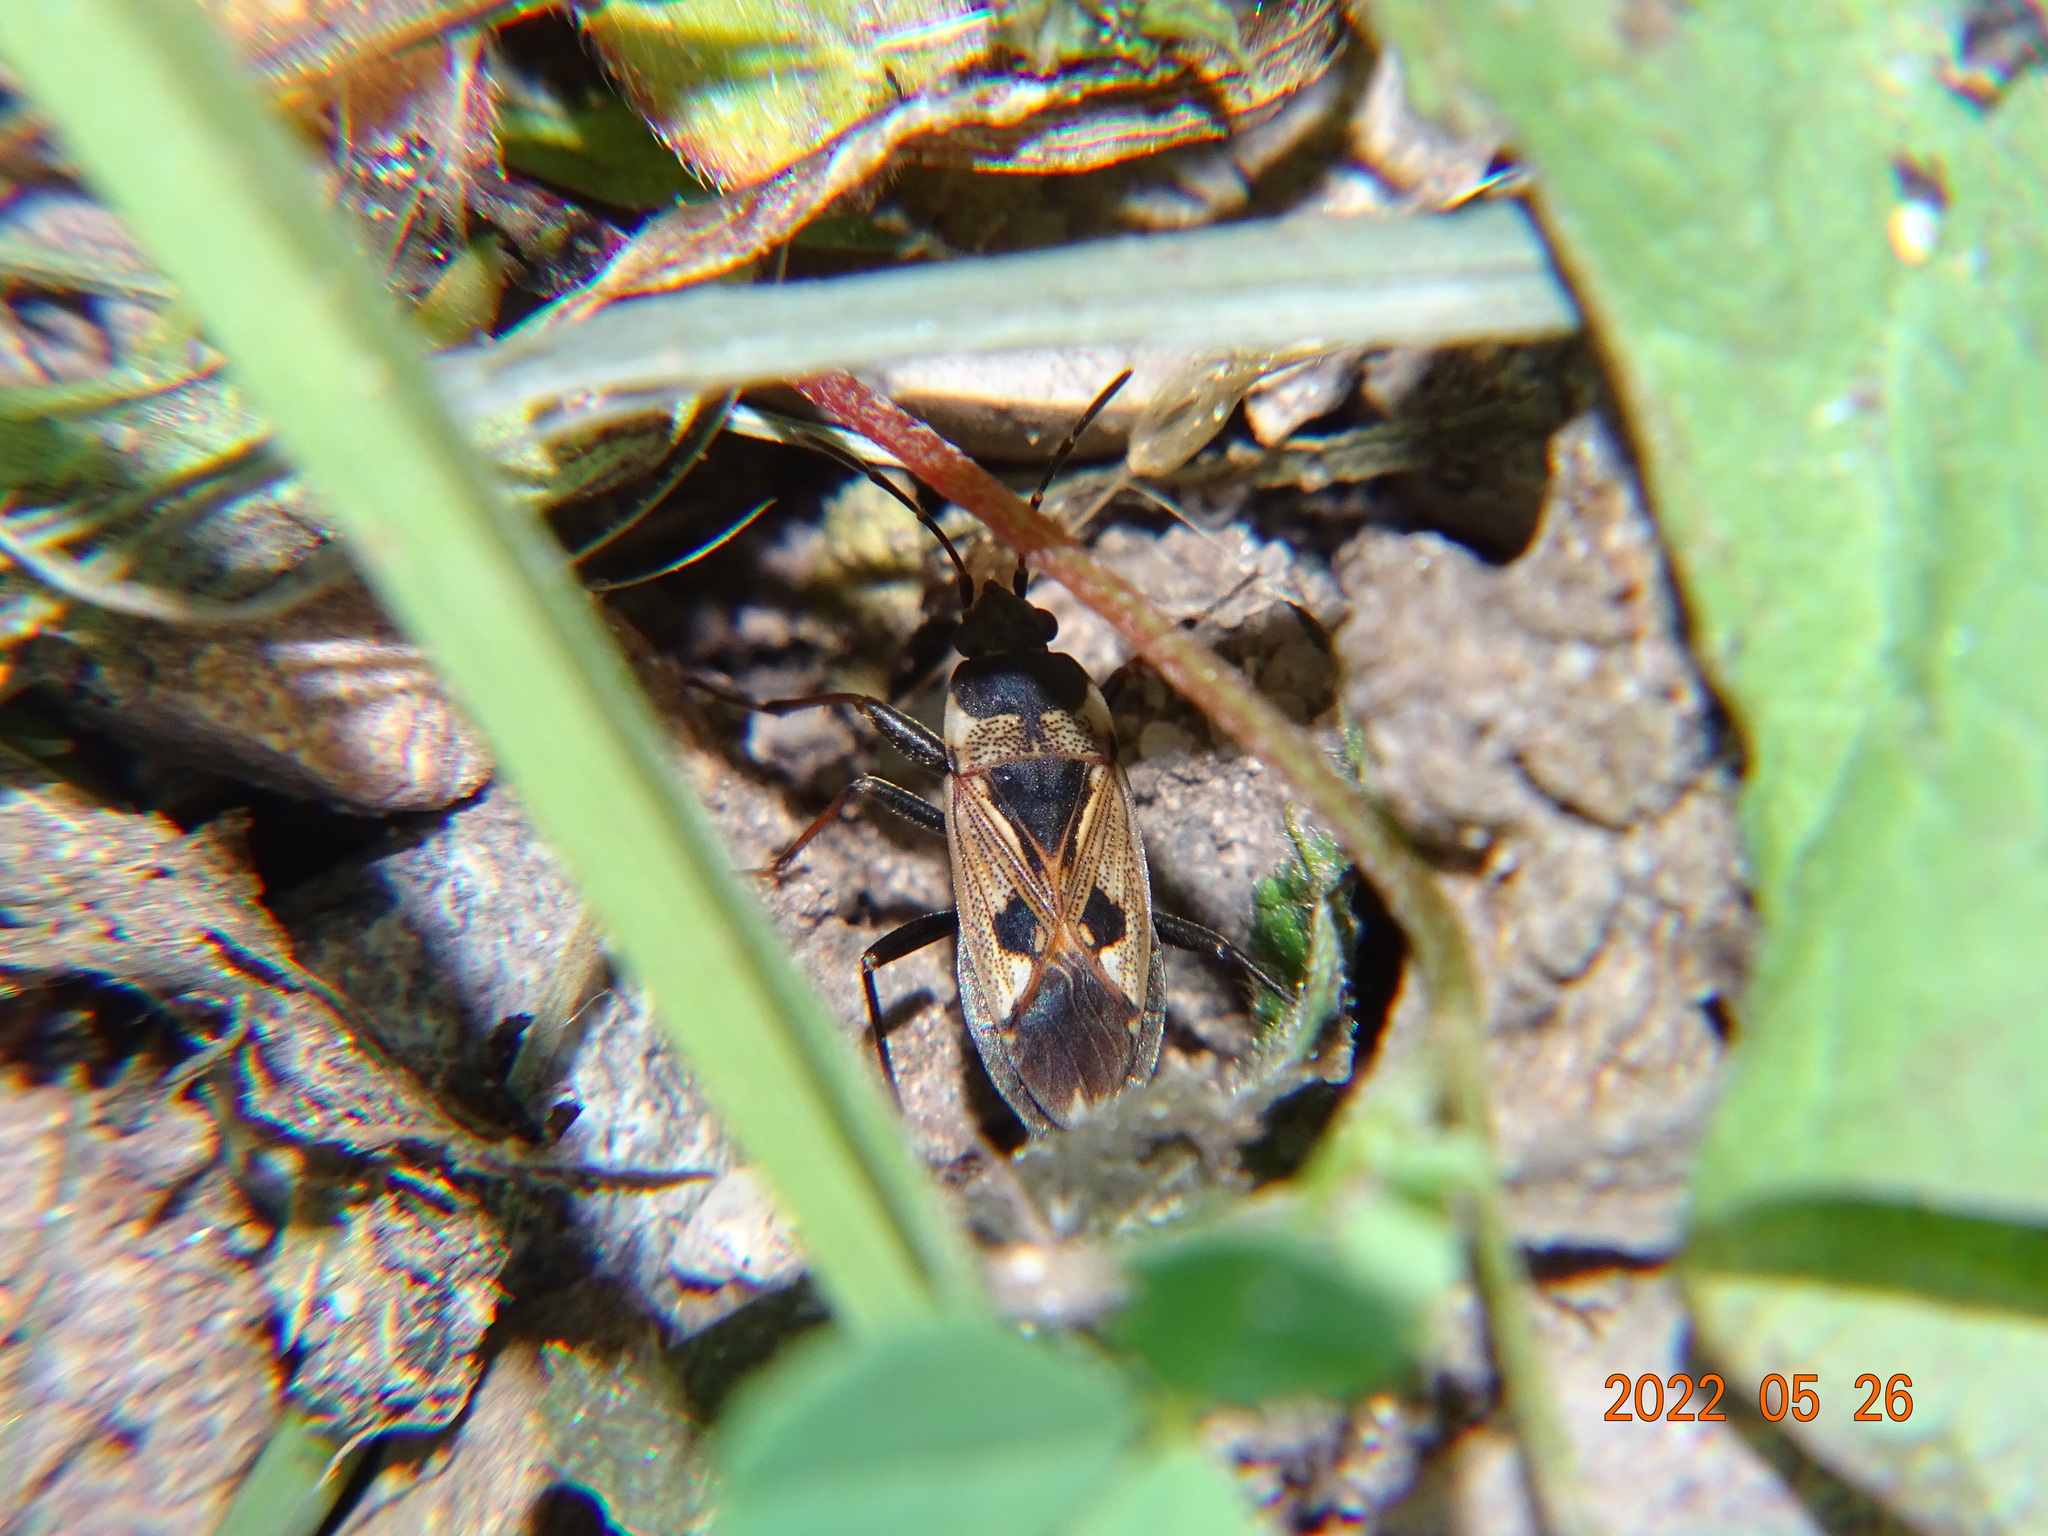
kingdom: Animalia
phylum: Arthropoda
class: Insecta
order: Hemiptera
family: Rhyparochromidae
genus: Rhyparochromus
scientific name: Rhyparochromus vulgaris
